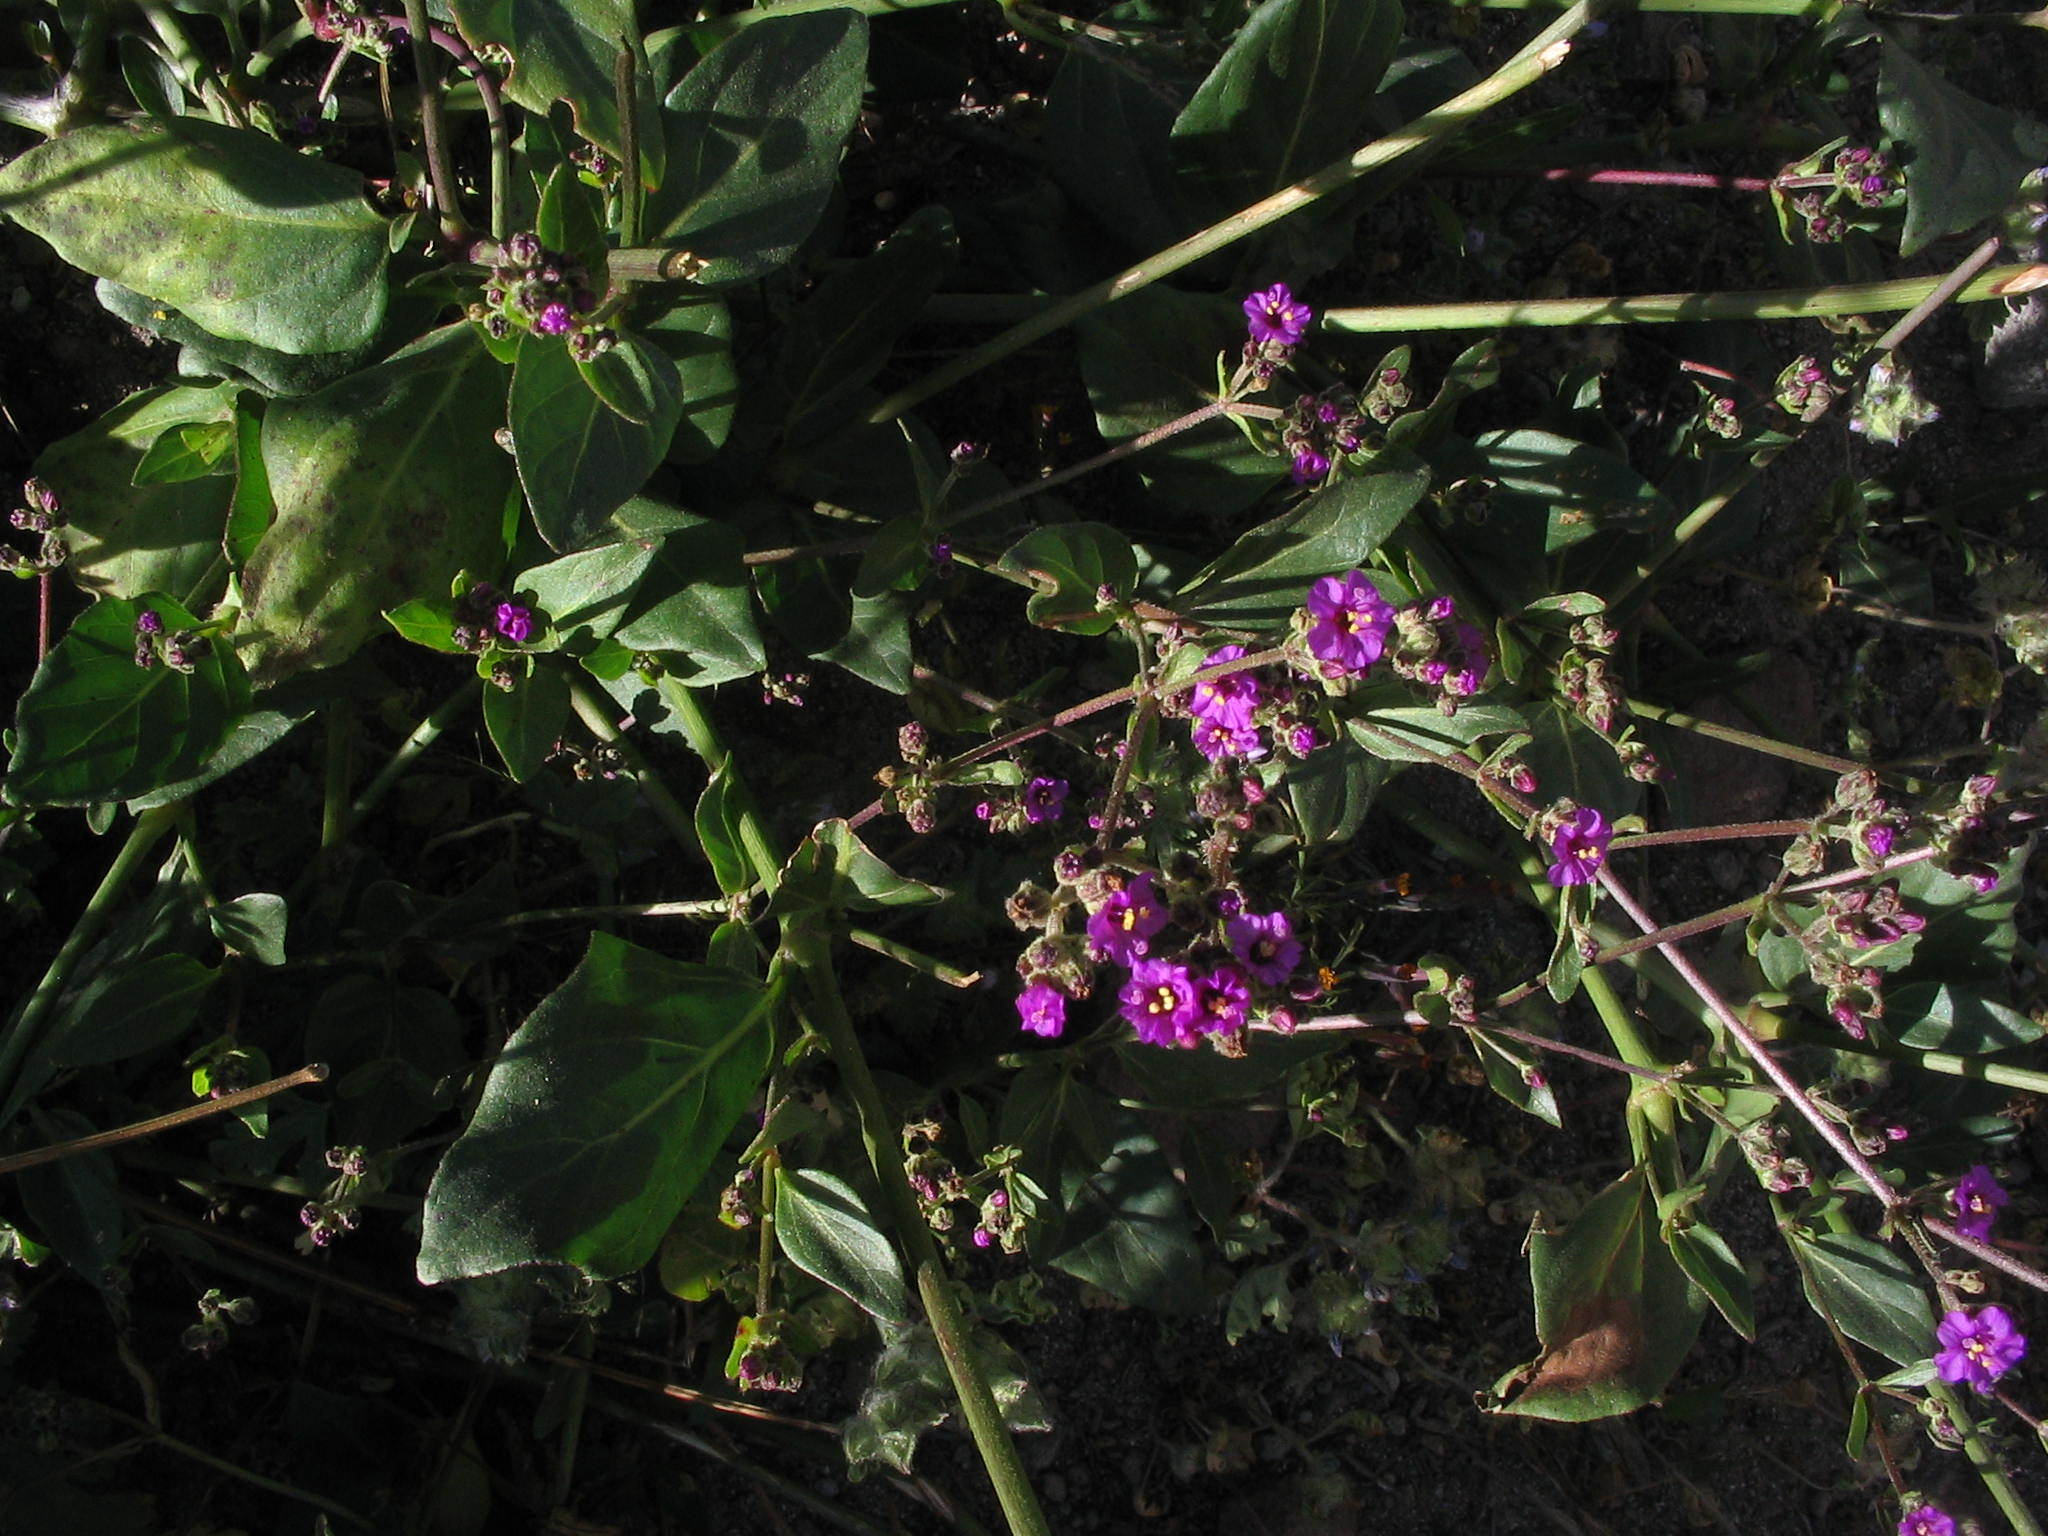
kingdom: Plantae
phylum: Tracheophyta
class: Magnoliopsida
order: Caryophyllales
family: Nyctaginaceae
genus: Mirabilis
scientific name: Mirabilis expansa
